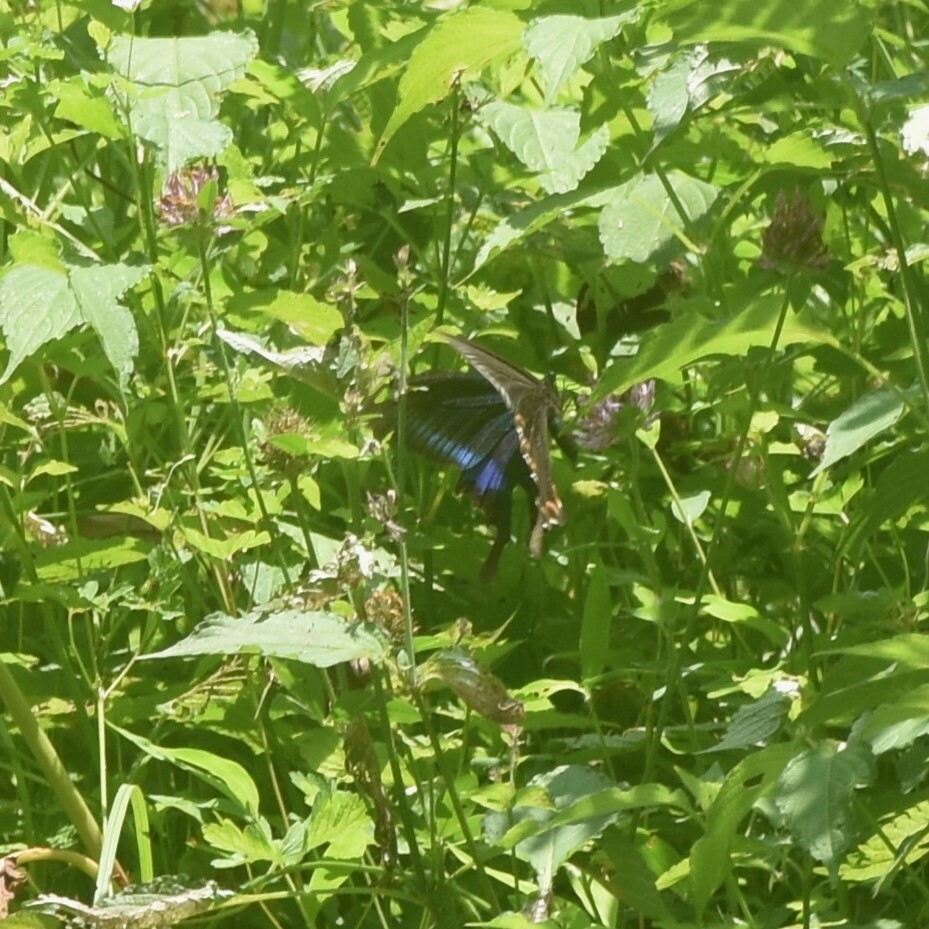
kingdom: Animalia
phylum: Arthropoda
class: Insecta
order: Lepidoptera
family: Papilionidae
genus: Papilio
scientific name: Papilio bianor
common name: Common peacock
